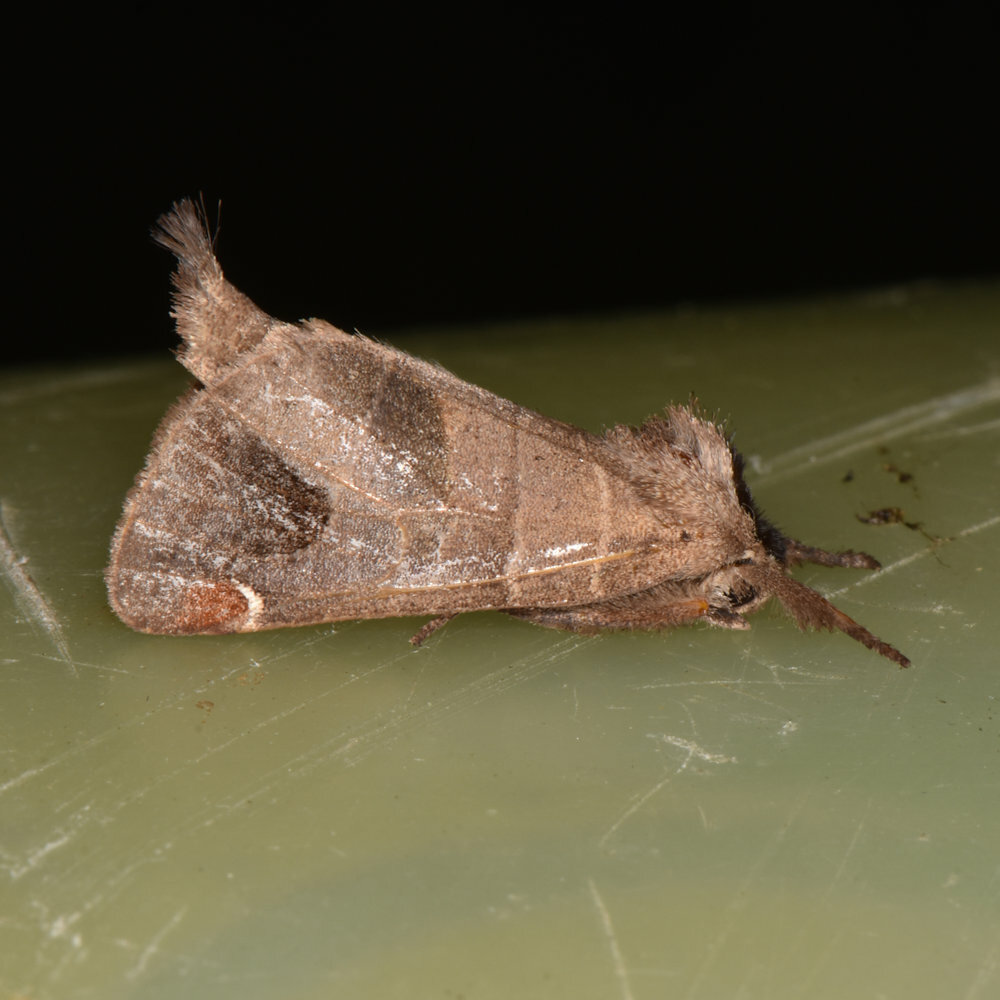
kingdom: Animalia
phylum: Arthropoda
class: Insecta
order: Lepidoptera
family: Notodontidae
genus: Clostera
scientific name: Clostera albosigma
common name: Sigmoid prominent
